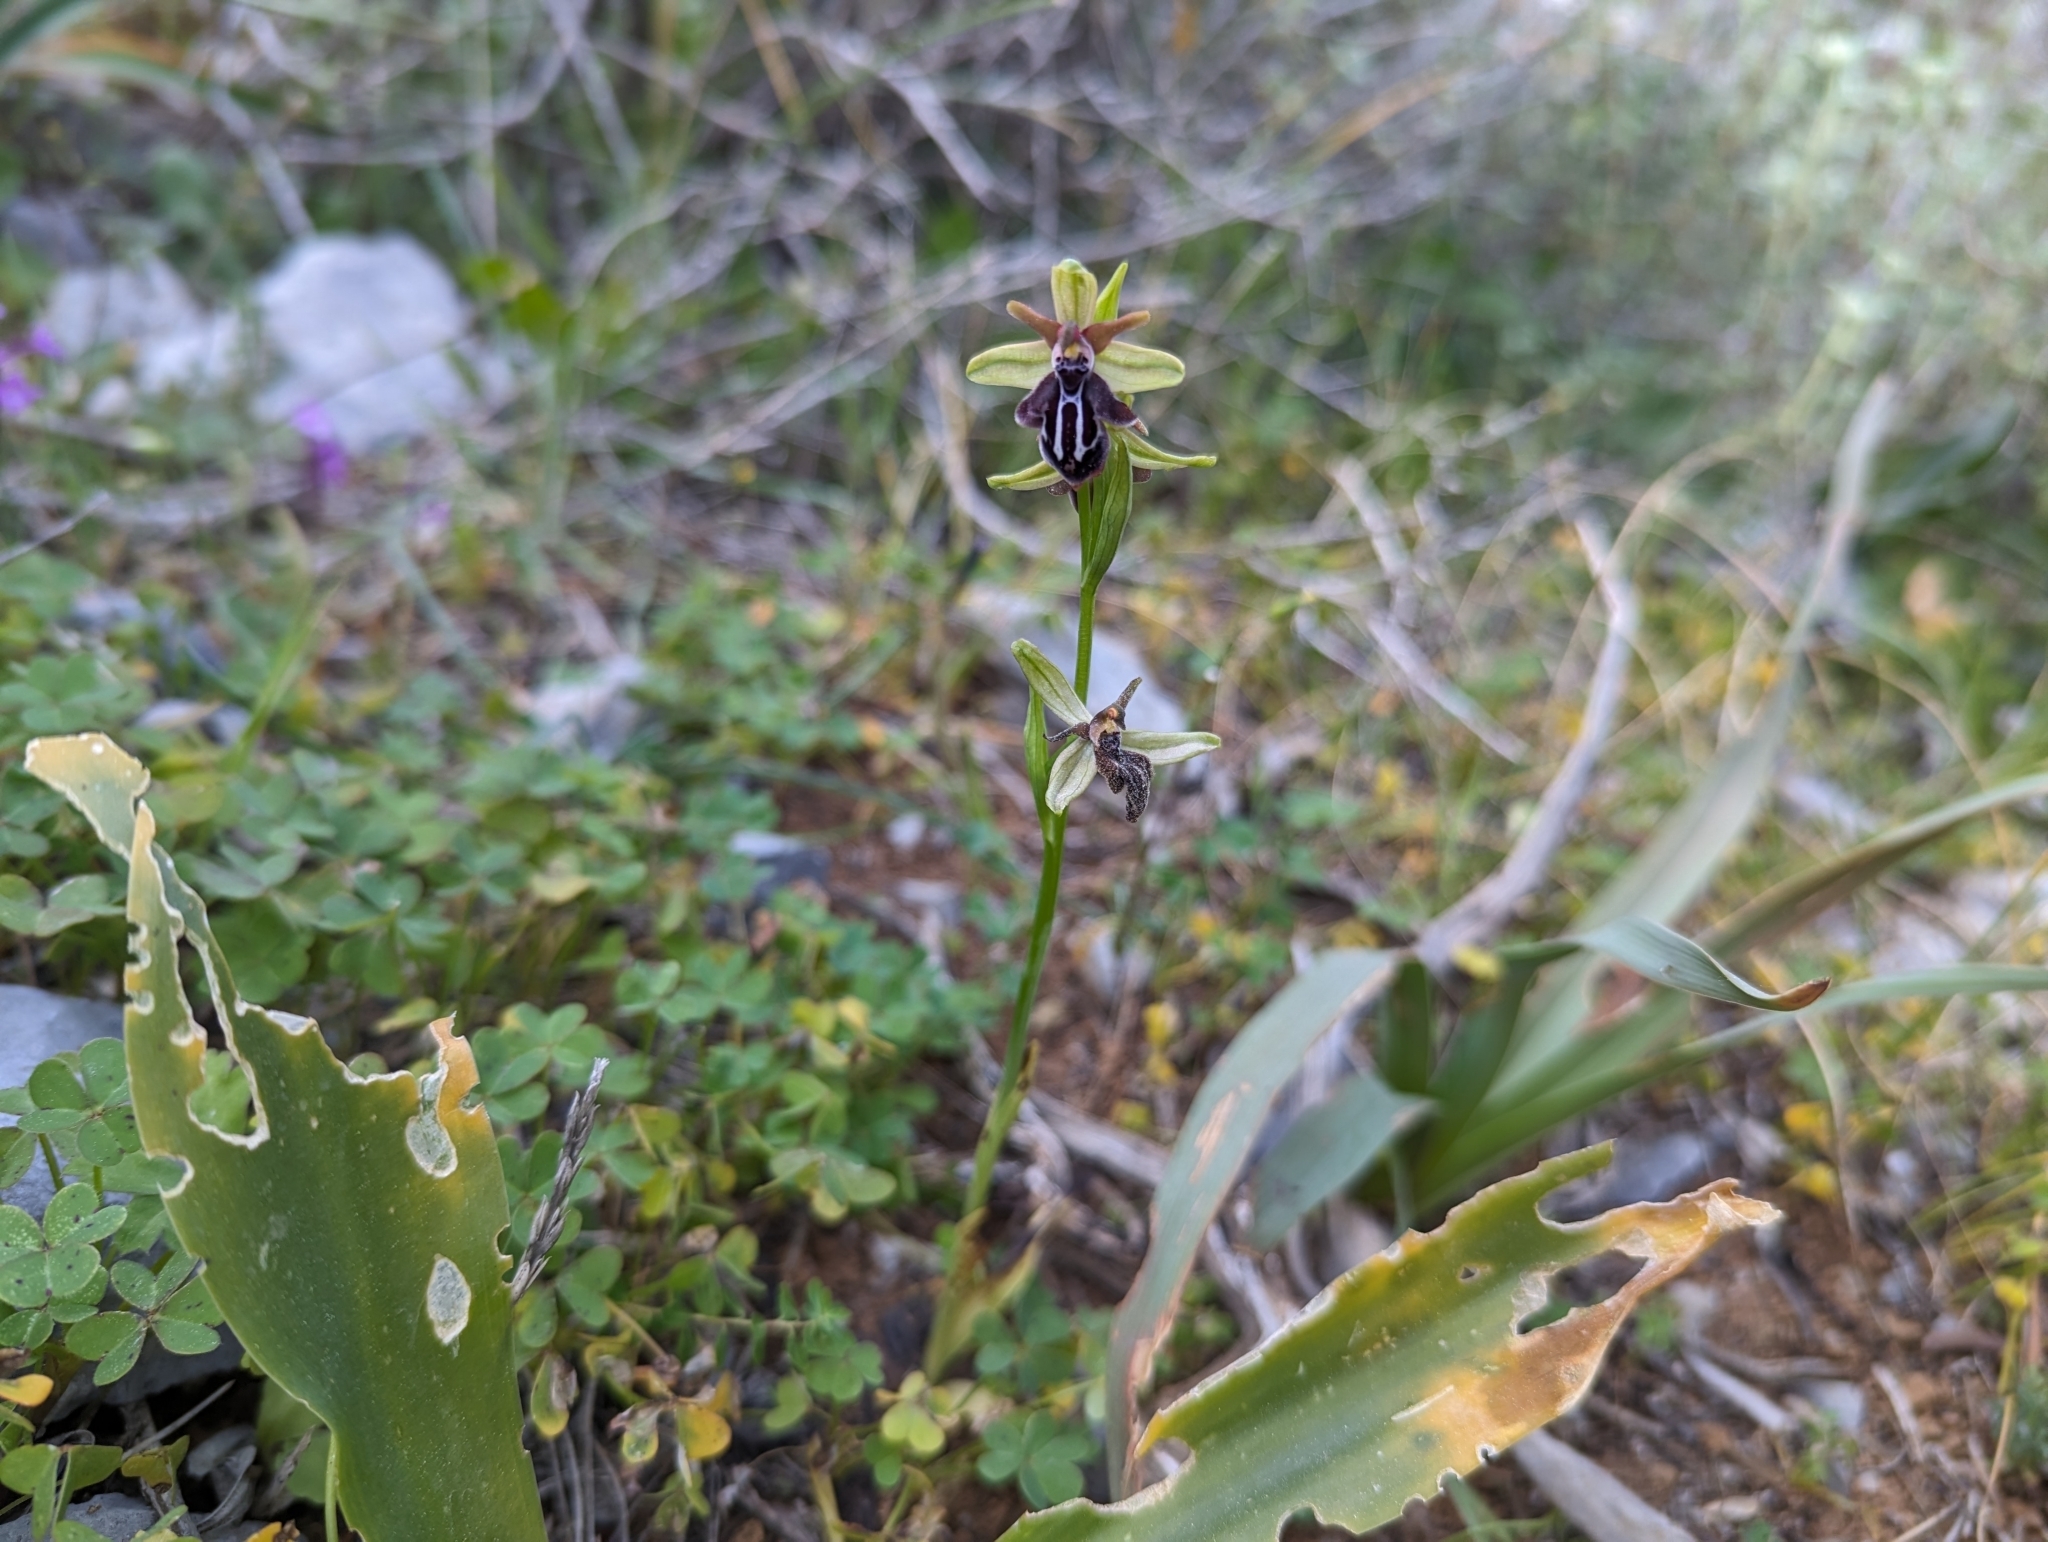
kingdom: Plantae
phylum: Tracheophyta
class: Liliopsida
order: Asparagales
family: Orchidaceae
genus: Ophrys
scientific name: Ophrys cretica
